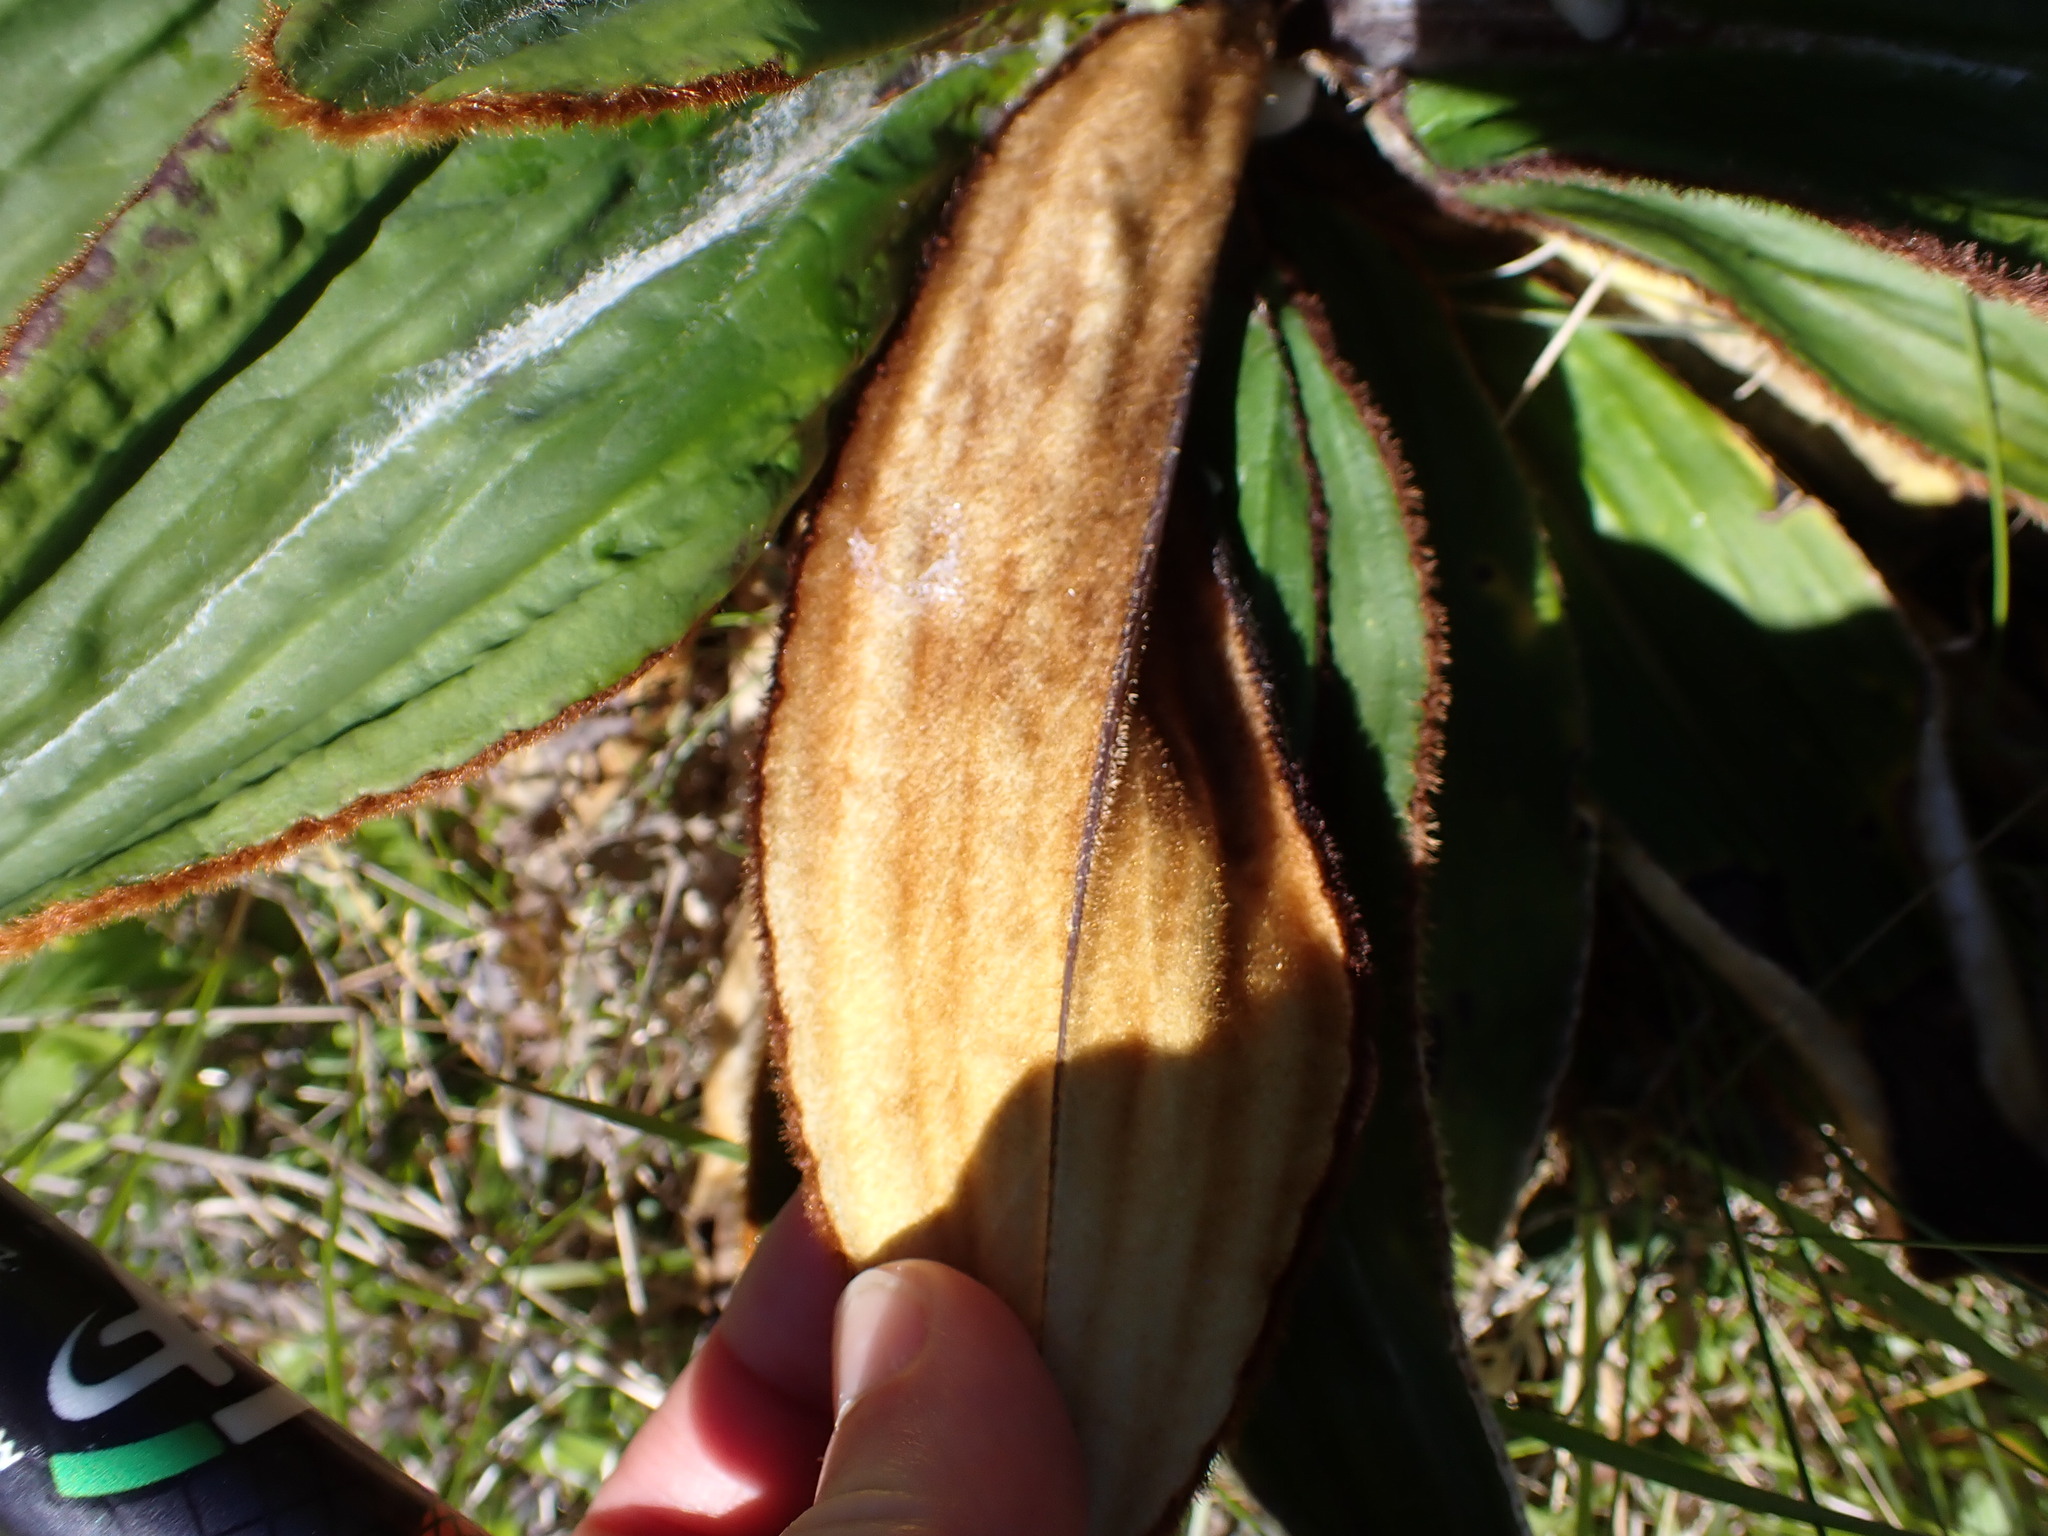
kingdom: Plantae
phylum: Tracheophyta
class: Magnoliopsida
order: Asterales
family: Asteraceae
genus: Celmisia
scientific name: Celmisia traversii
